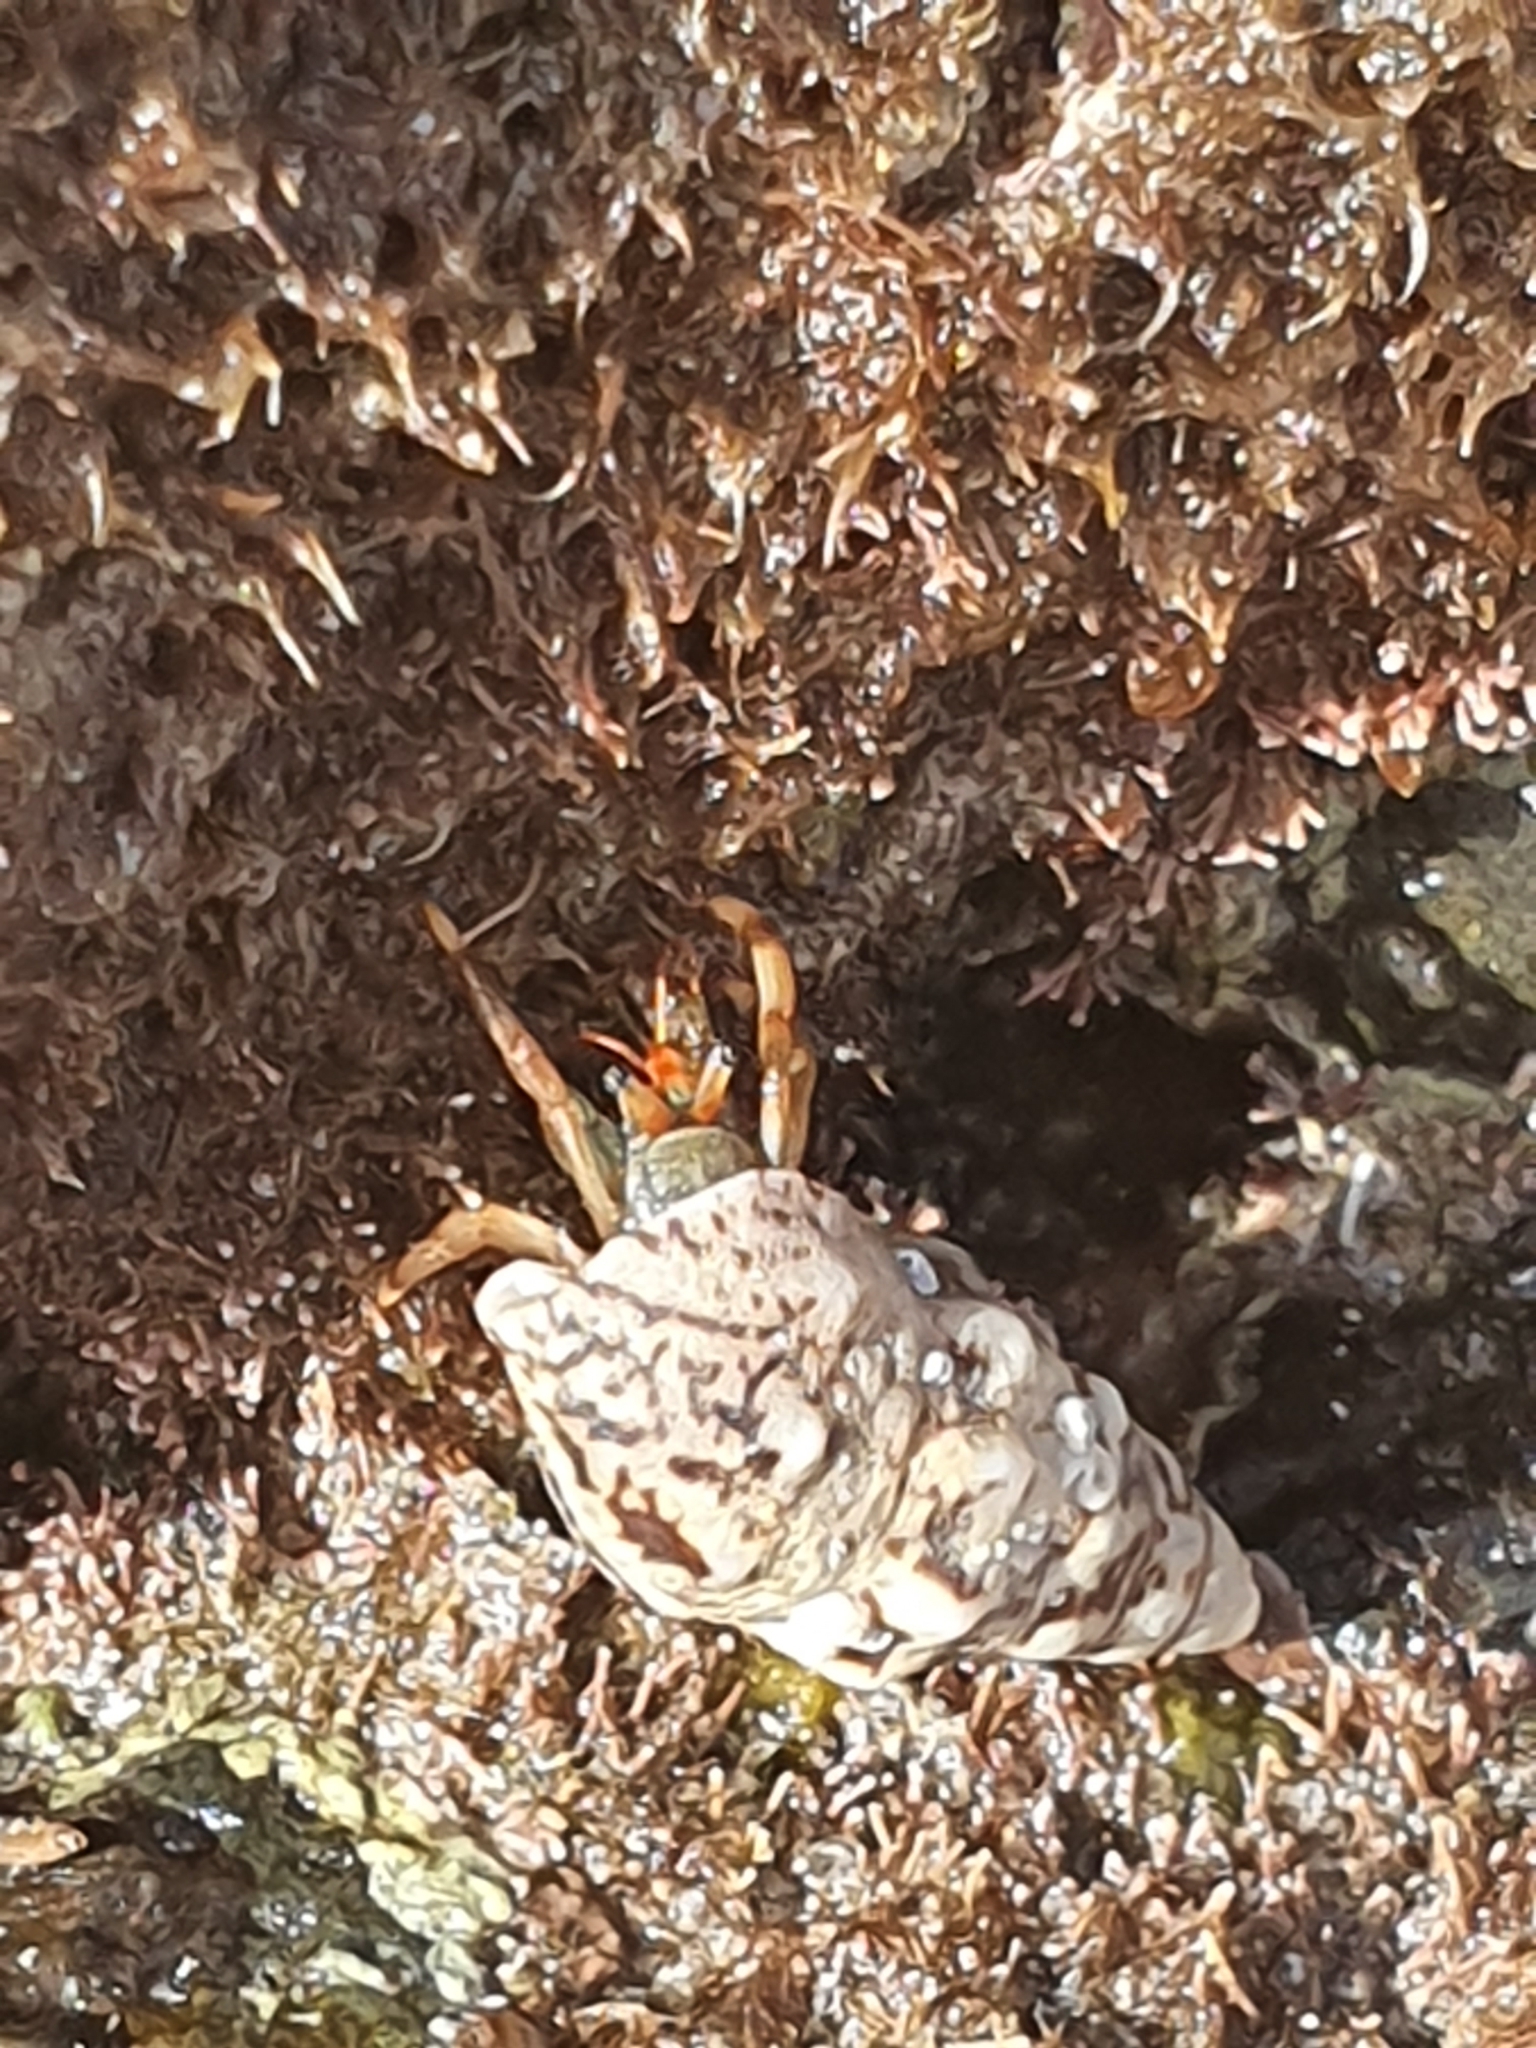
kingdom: Animalia
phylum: Arthropoda
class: Malacostraca
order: Decapoda
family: Diogenidae
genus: Clibanarius
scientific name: Clibanarius aequabilis
